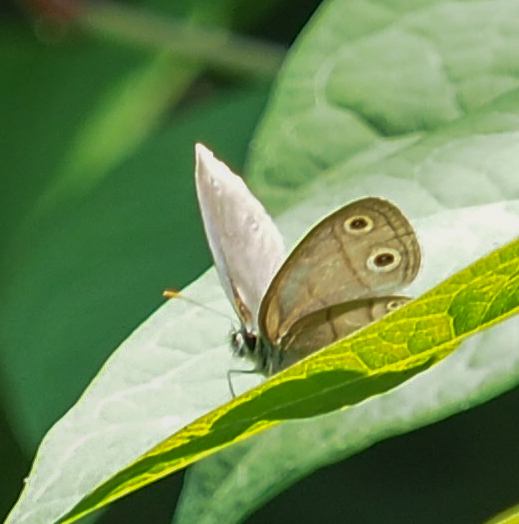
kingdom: Animalia
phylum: Arthropoda
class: Insecta
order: Lepidoptera
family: Nymphalidae
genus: Euptychia
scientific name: Euptychia cymela
